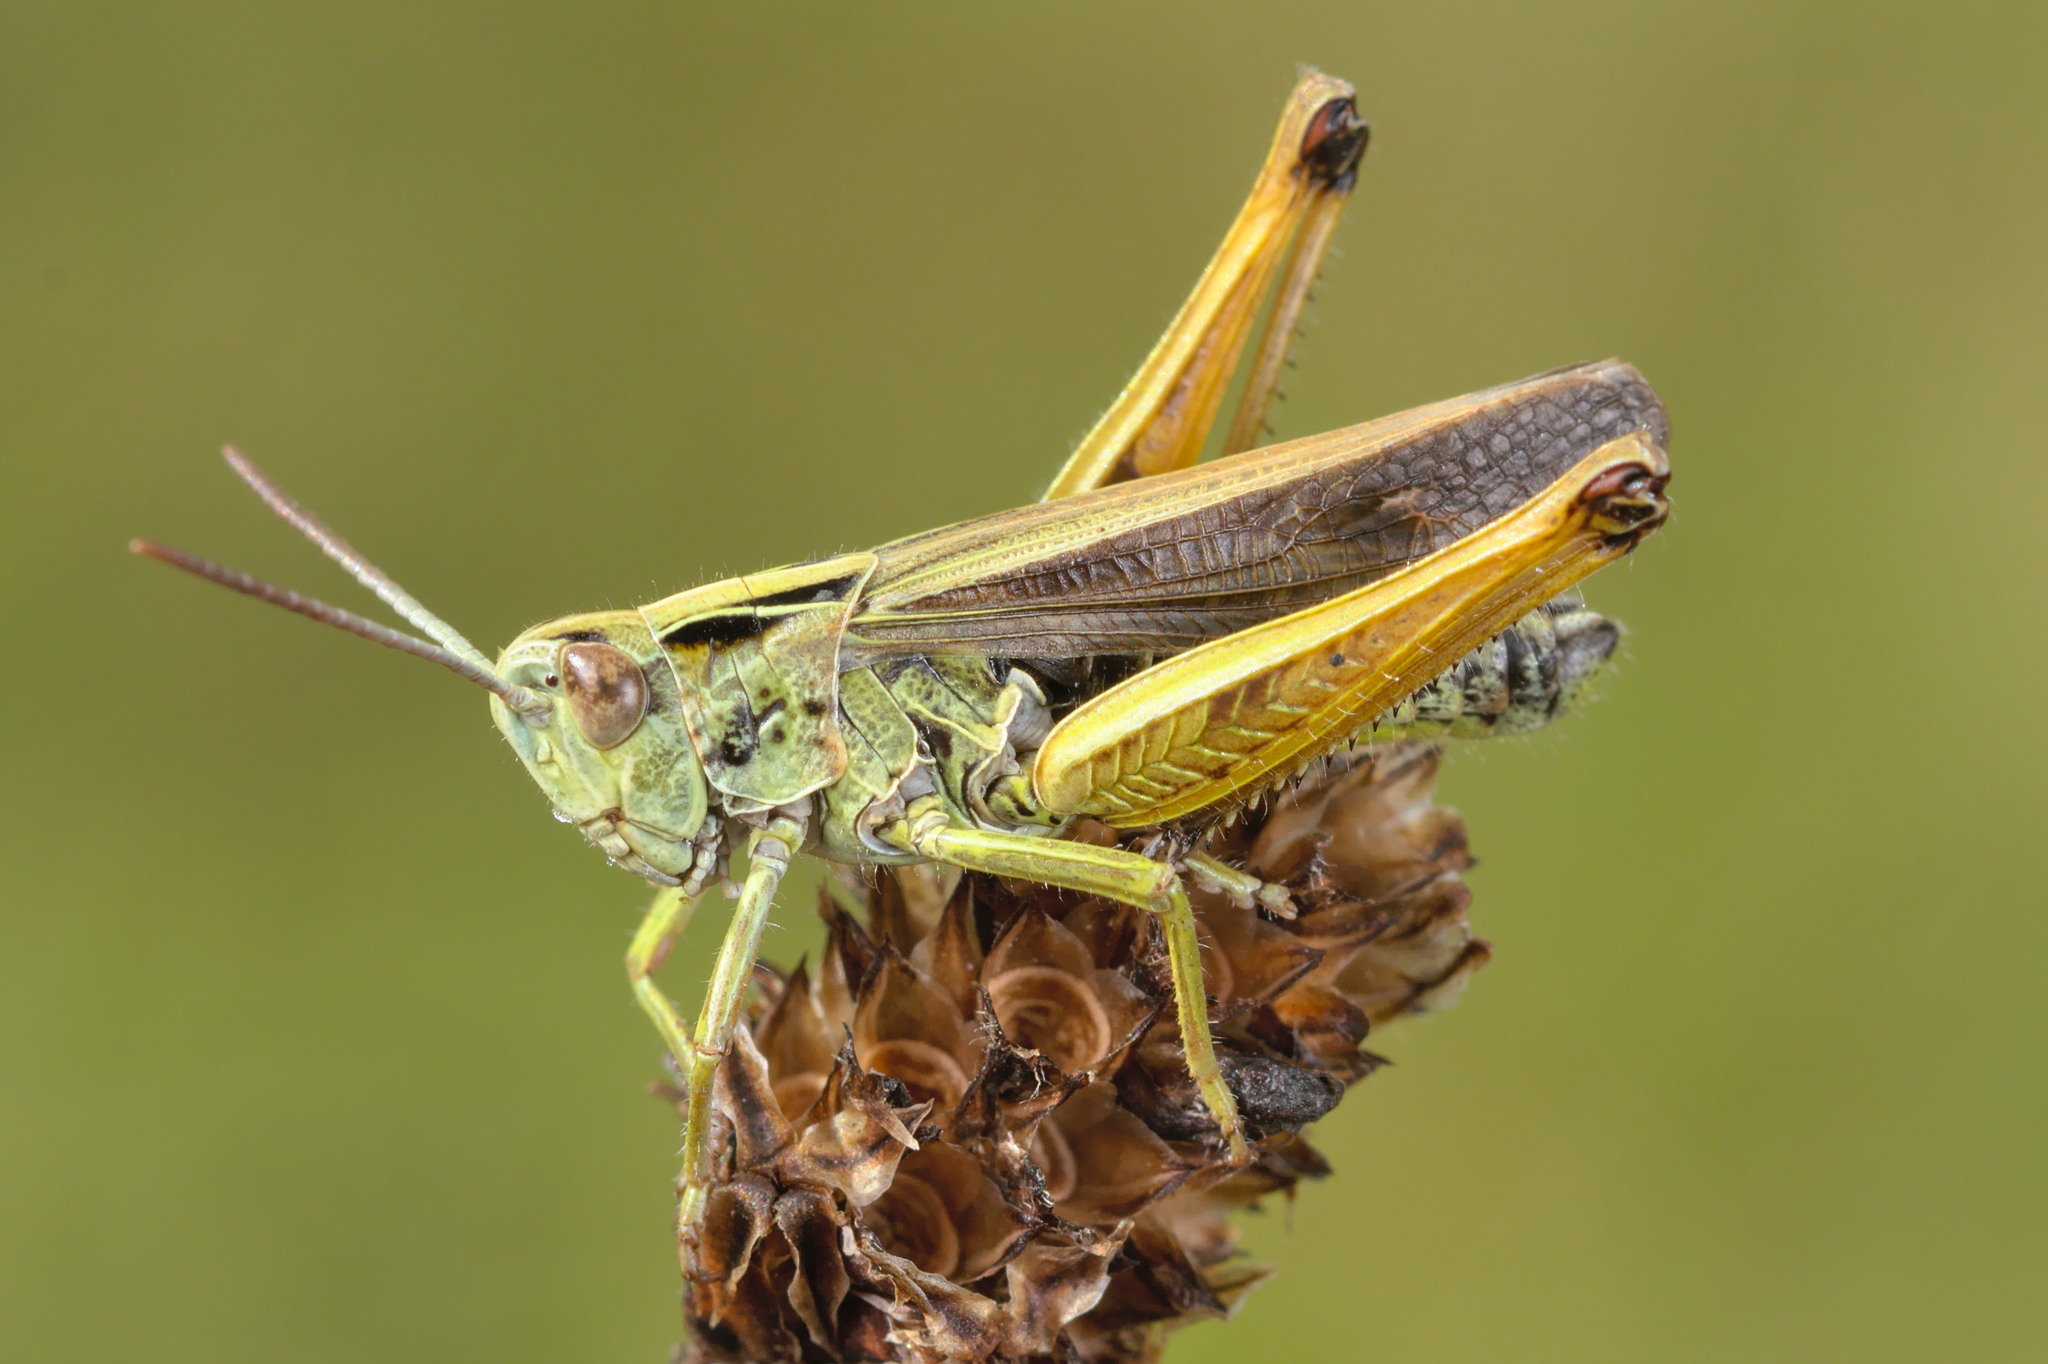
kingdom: Animalia
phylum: Arthropoda
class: Insecta
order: Orthoptera
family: Acrididae
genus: Omocestus
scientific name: Omocestus viridulus
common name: Common green grasshopper
